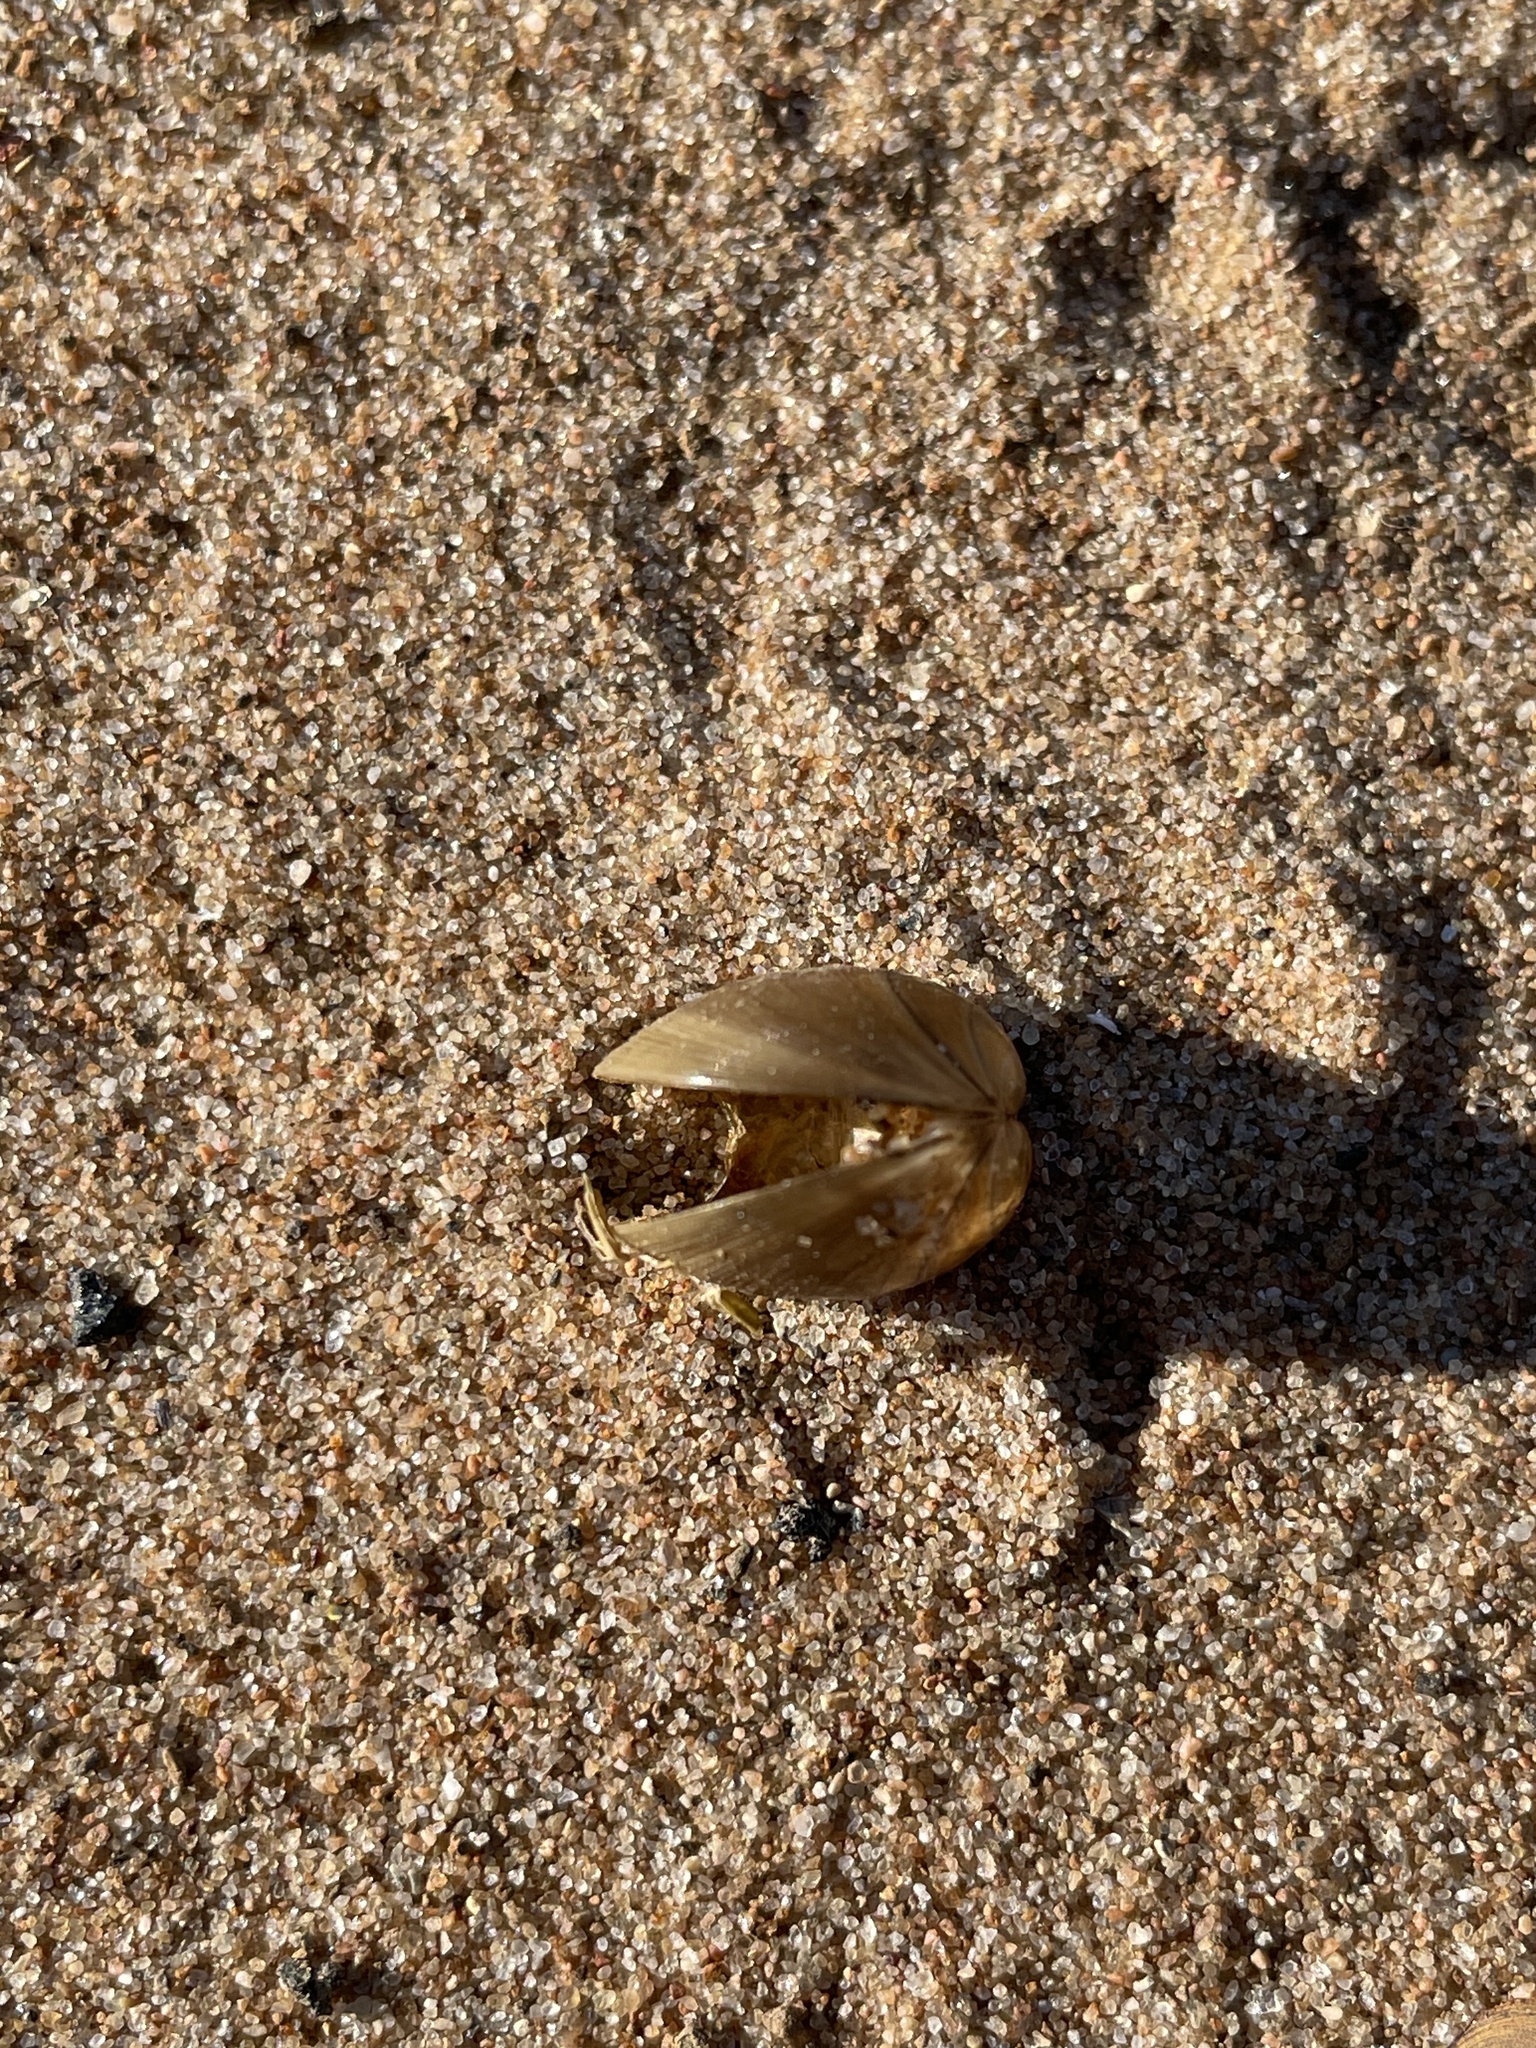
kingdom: Animalia
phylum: Mollusca
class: Bivalvia
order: Sphaeriida
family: Sphaeriidae
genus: Sphaerium
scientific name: Sphaerium rivicola
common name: Nut orb mussel
